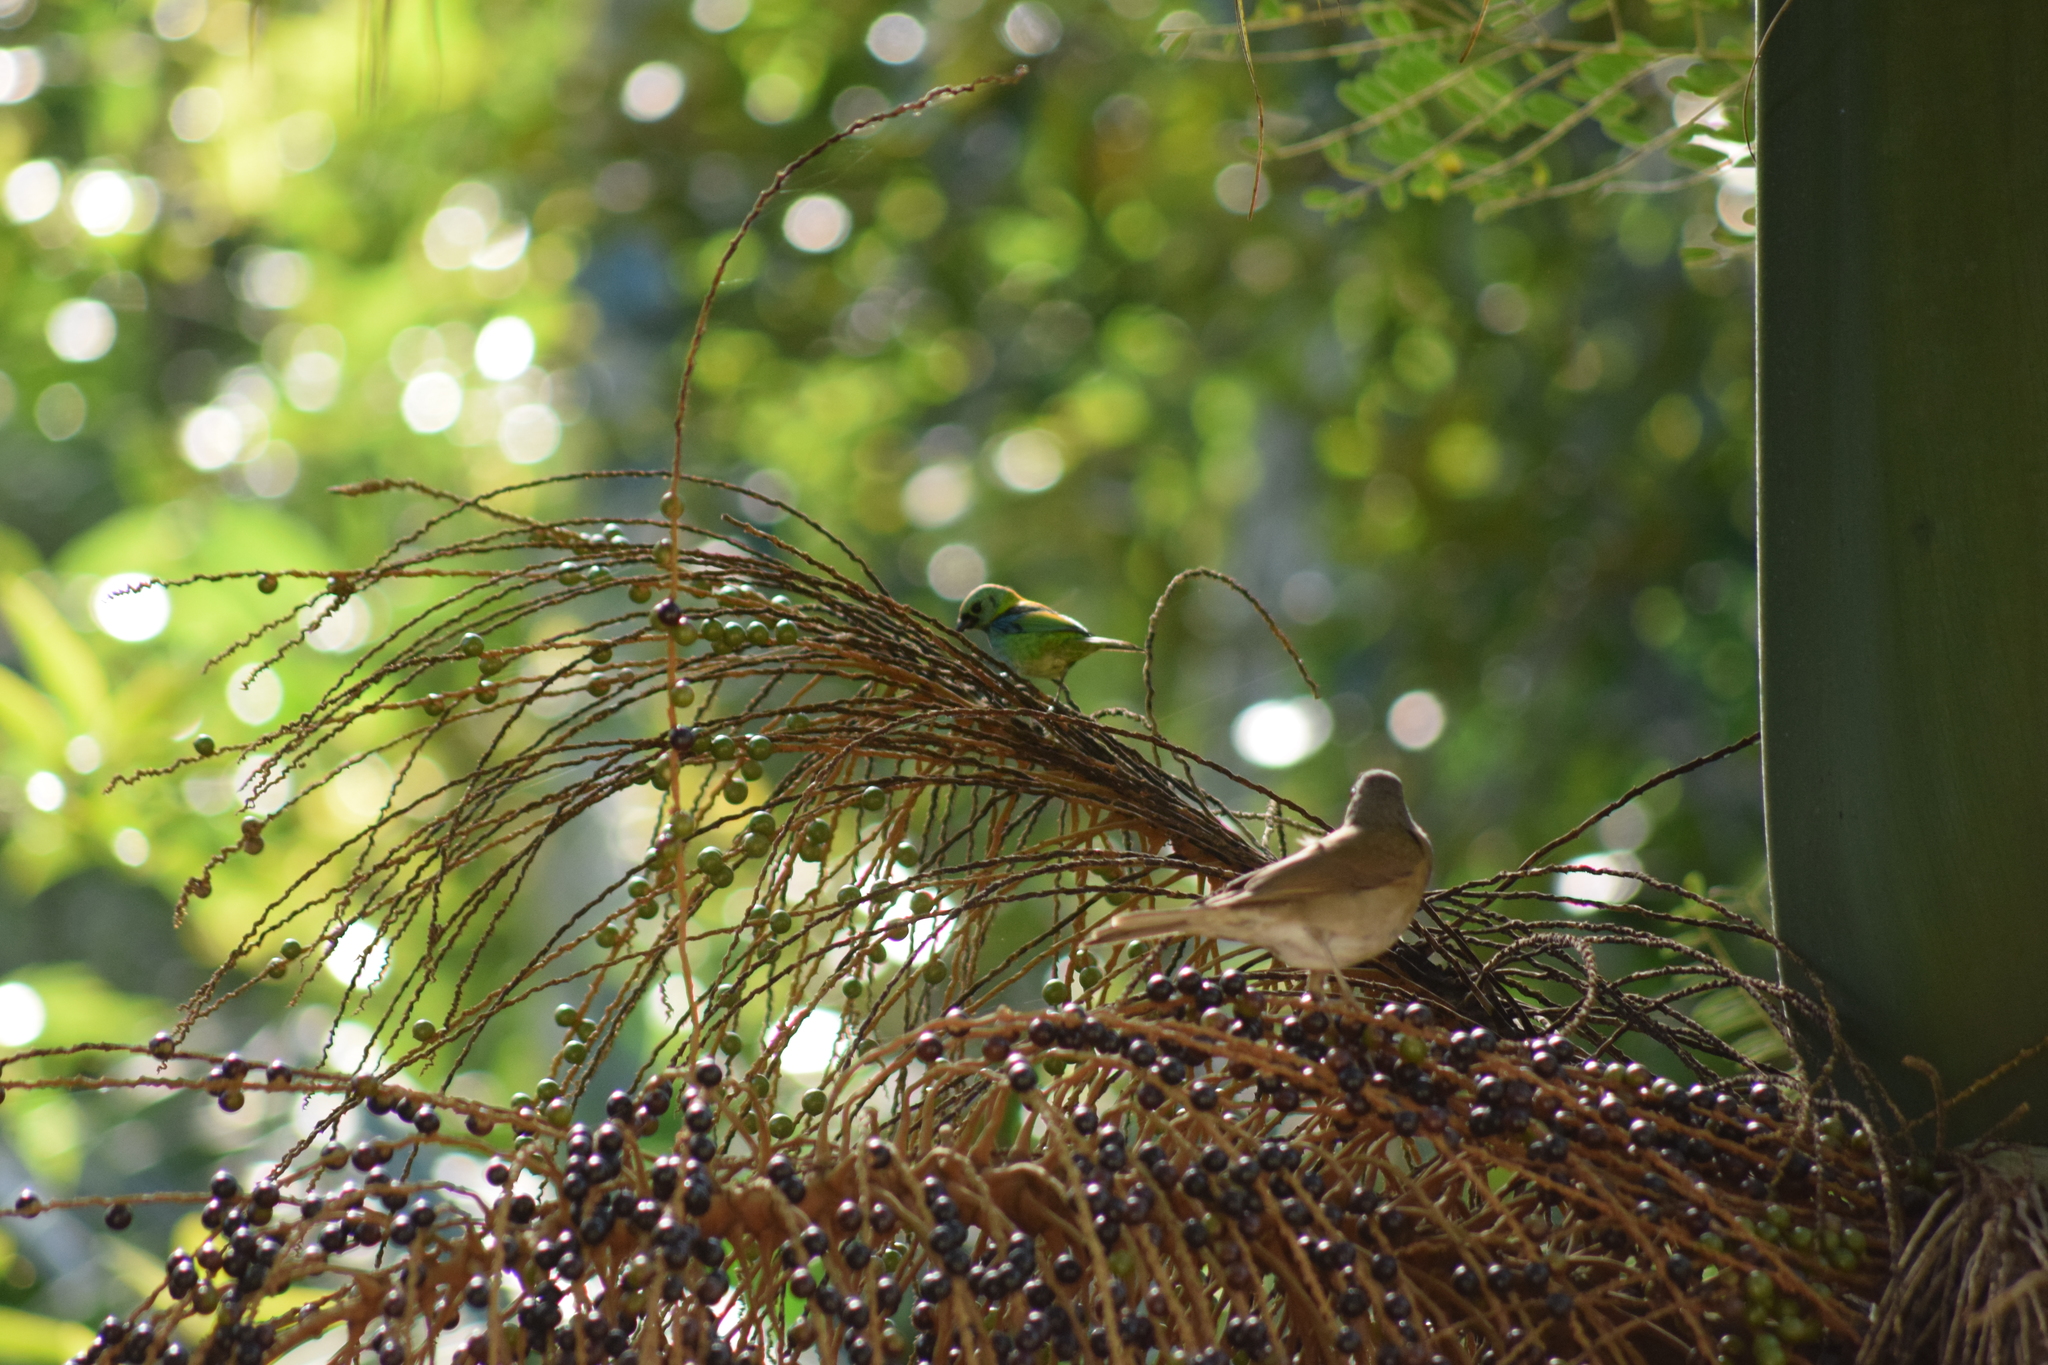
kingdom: Animalia
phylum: Chordata
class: Aves
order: Passeriformes
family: Thraupidae
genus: Tangara
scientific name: Tangara seledon
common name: Green-headed tanager
